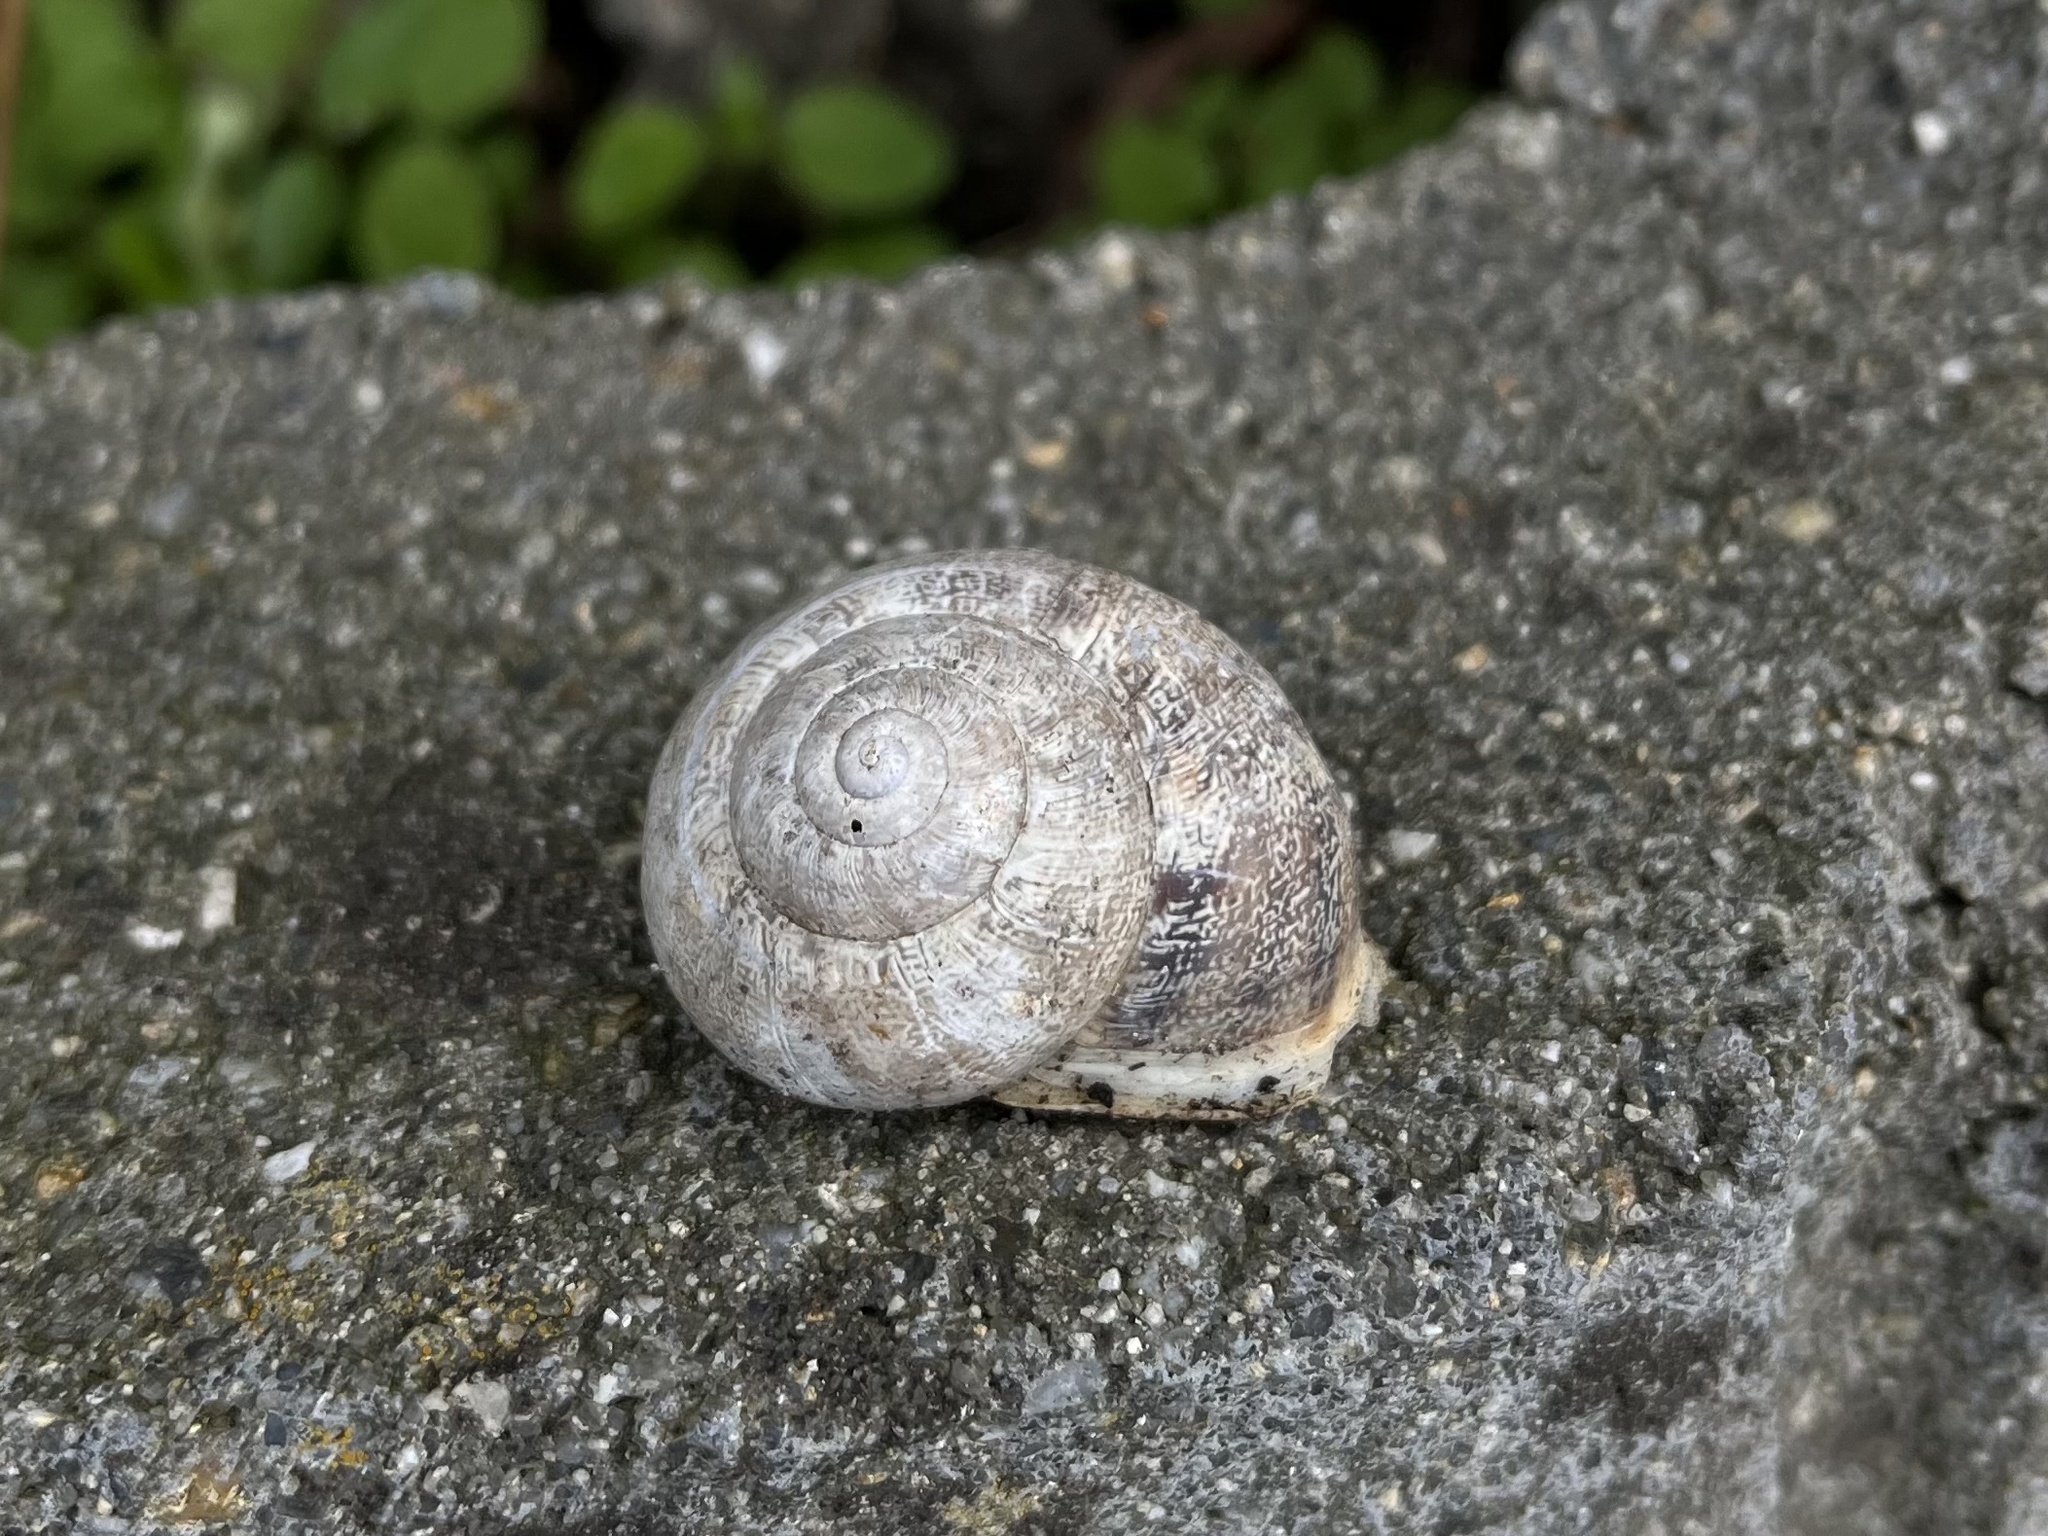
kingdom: Animalia
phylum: Mollusca
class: Gastropoda
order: Stylommatophora
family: Helicidae
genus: Eobania
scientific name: Eobania vermiculata
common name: Chocolateband snail
